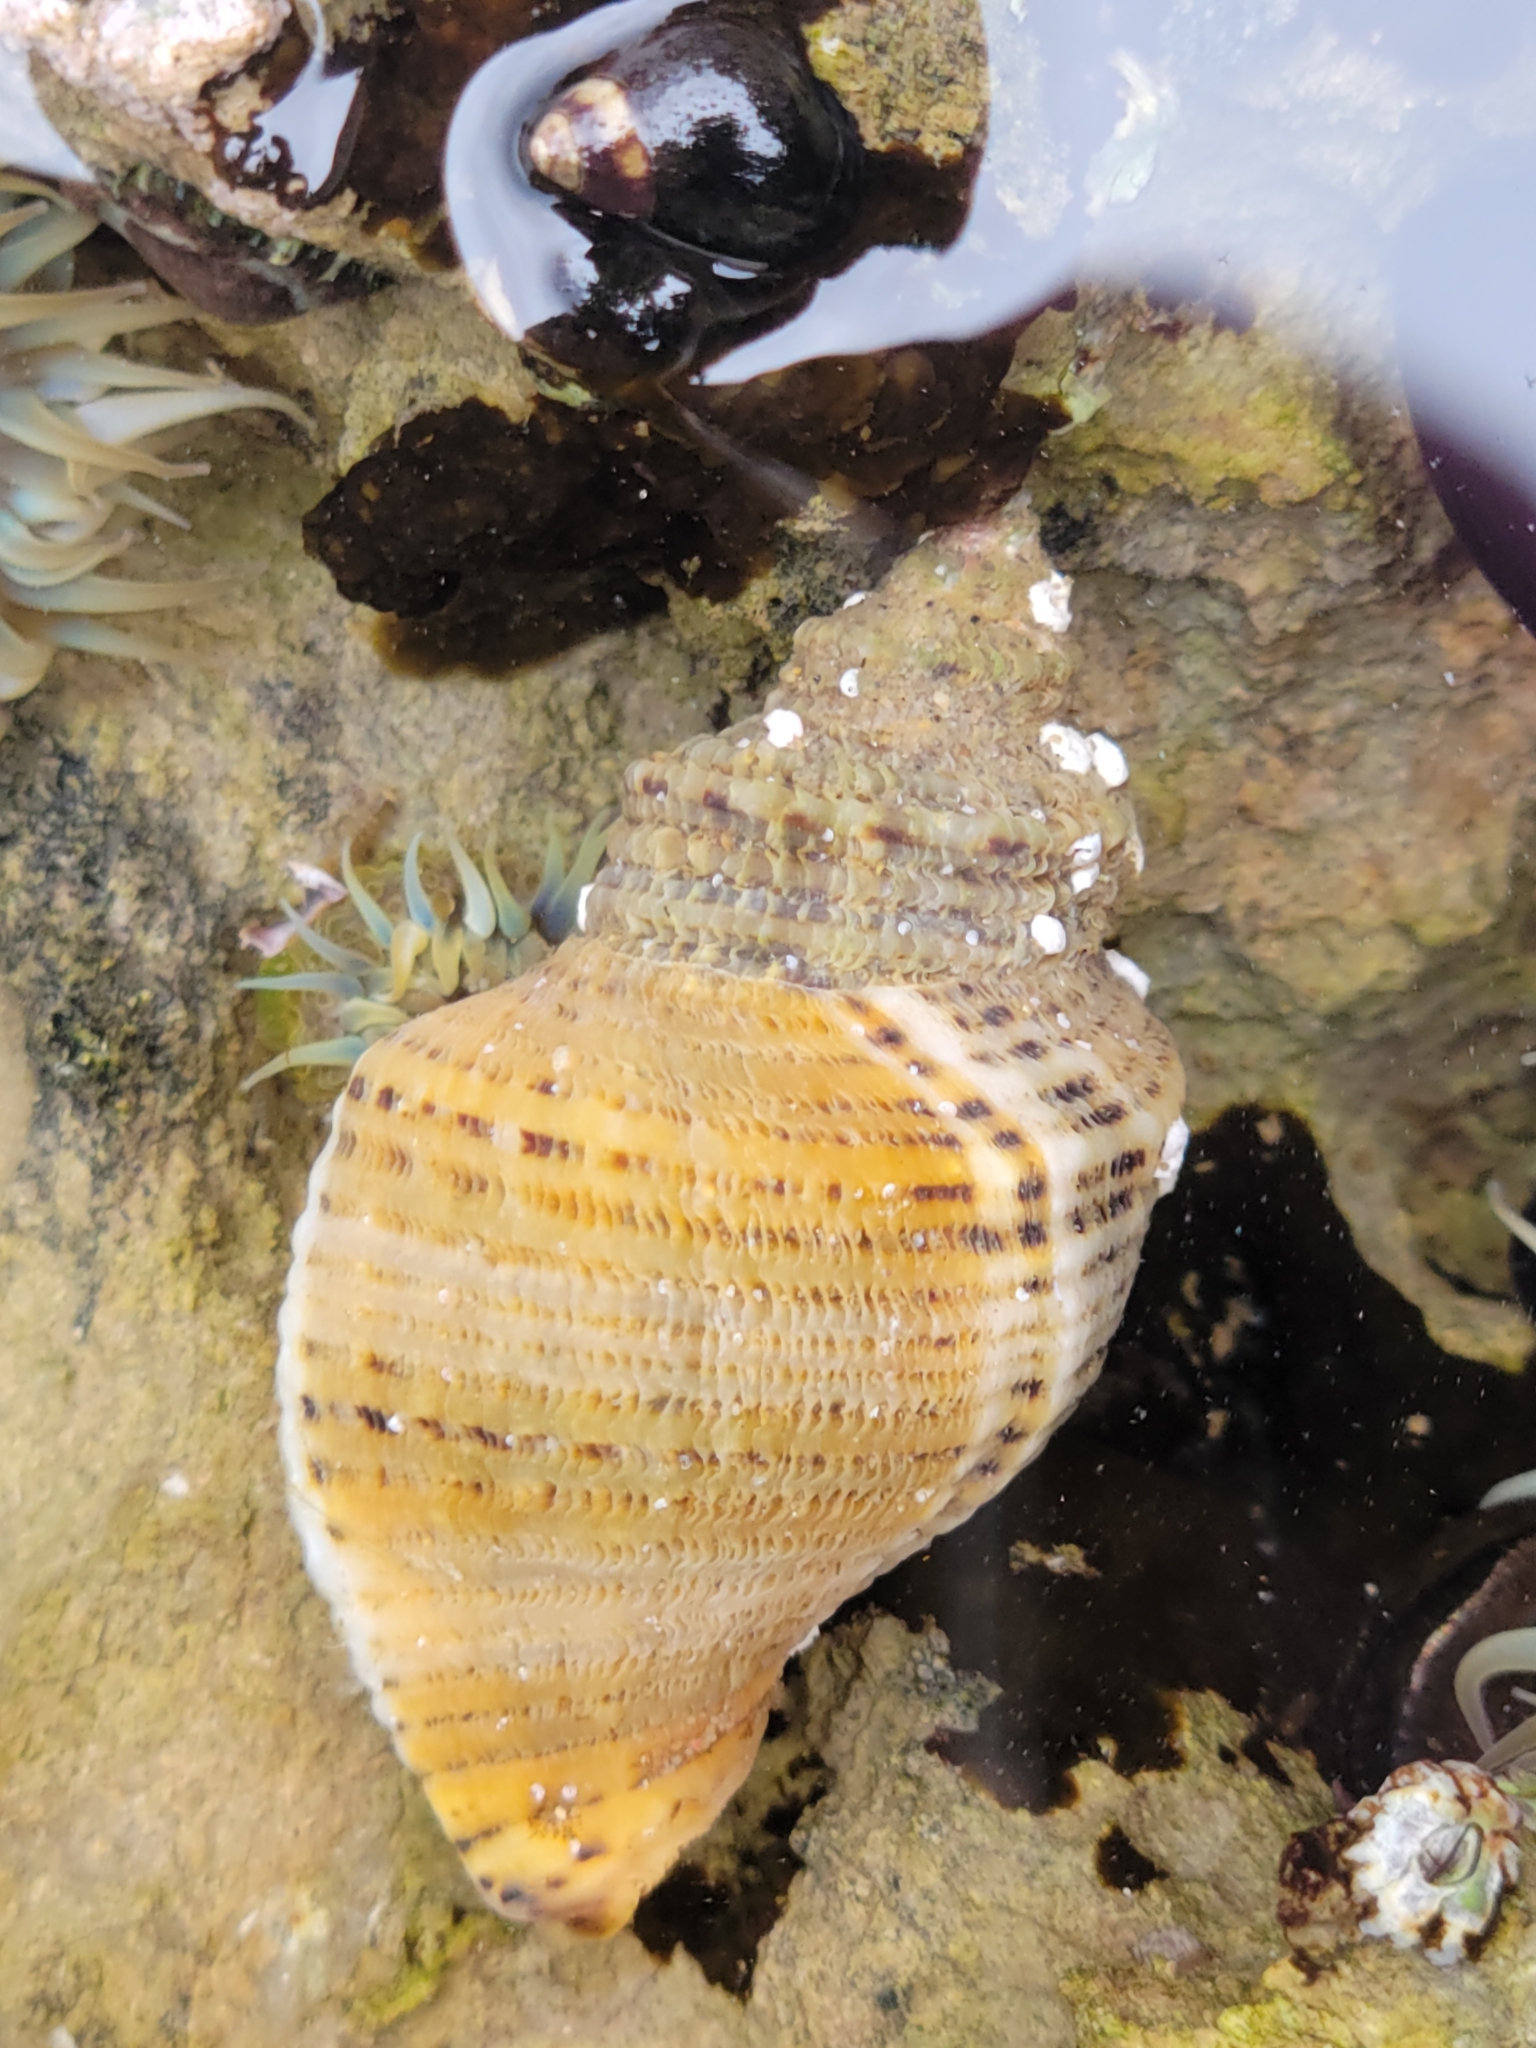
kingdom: Animalia
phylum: Mollusca
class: Gastropoda
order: Neogastropoda
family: Muricidae
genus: Acanthinucella
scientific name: Acanthinucella spirata
